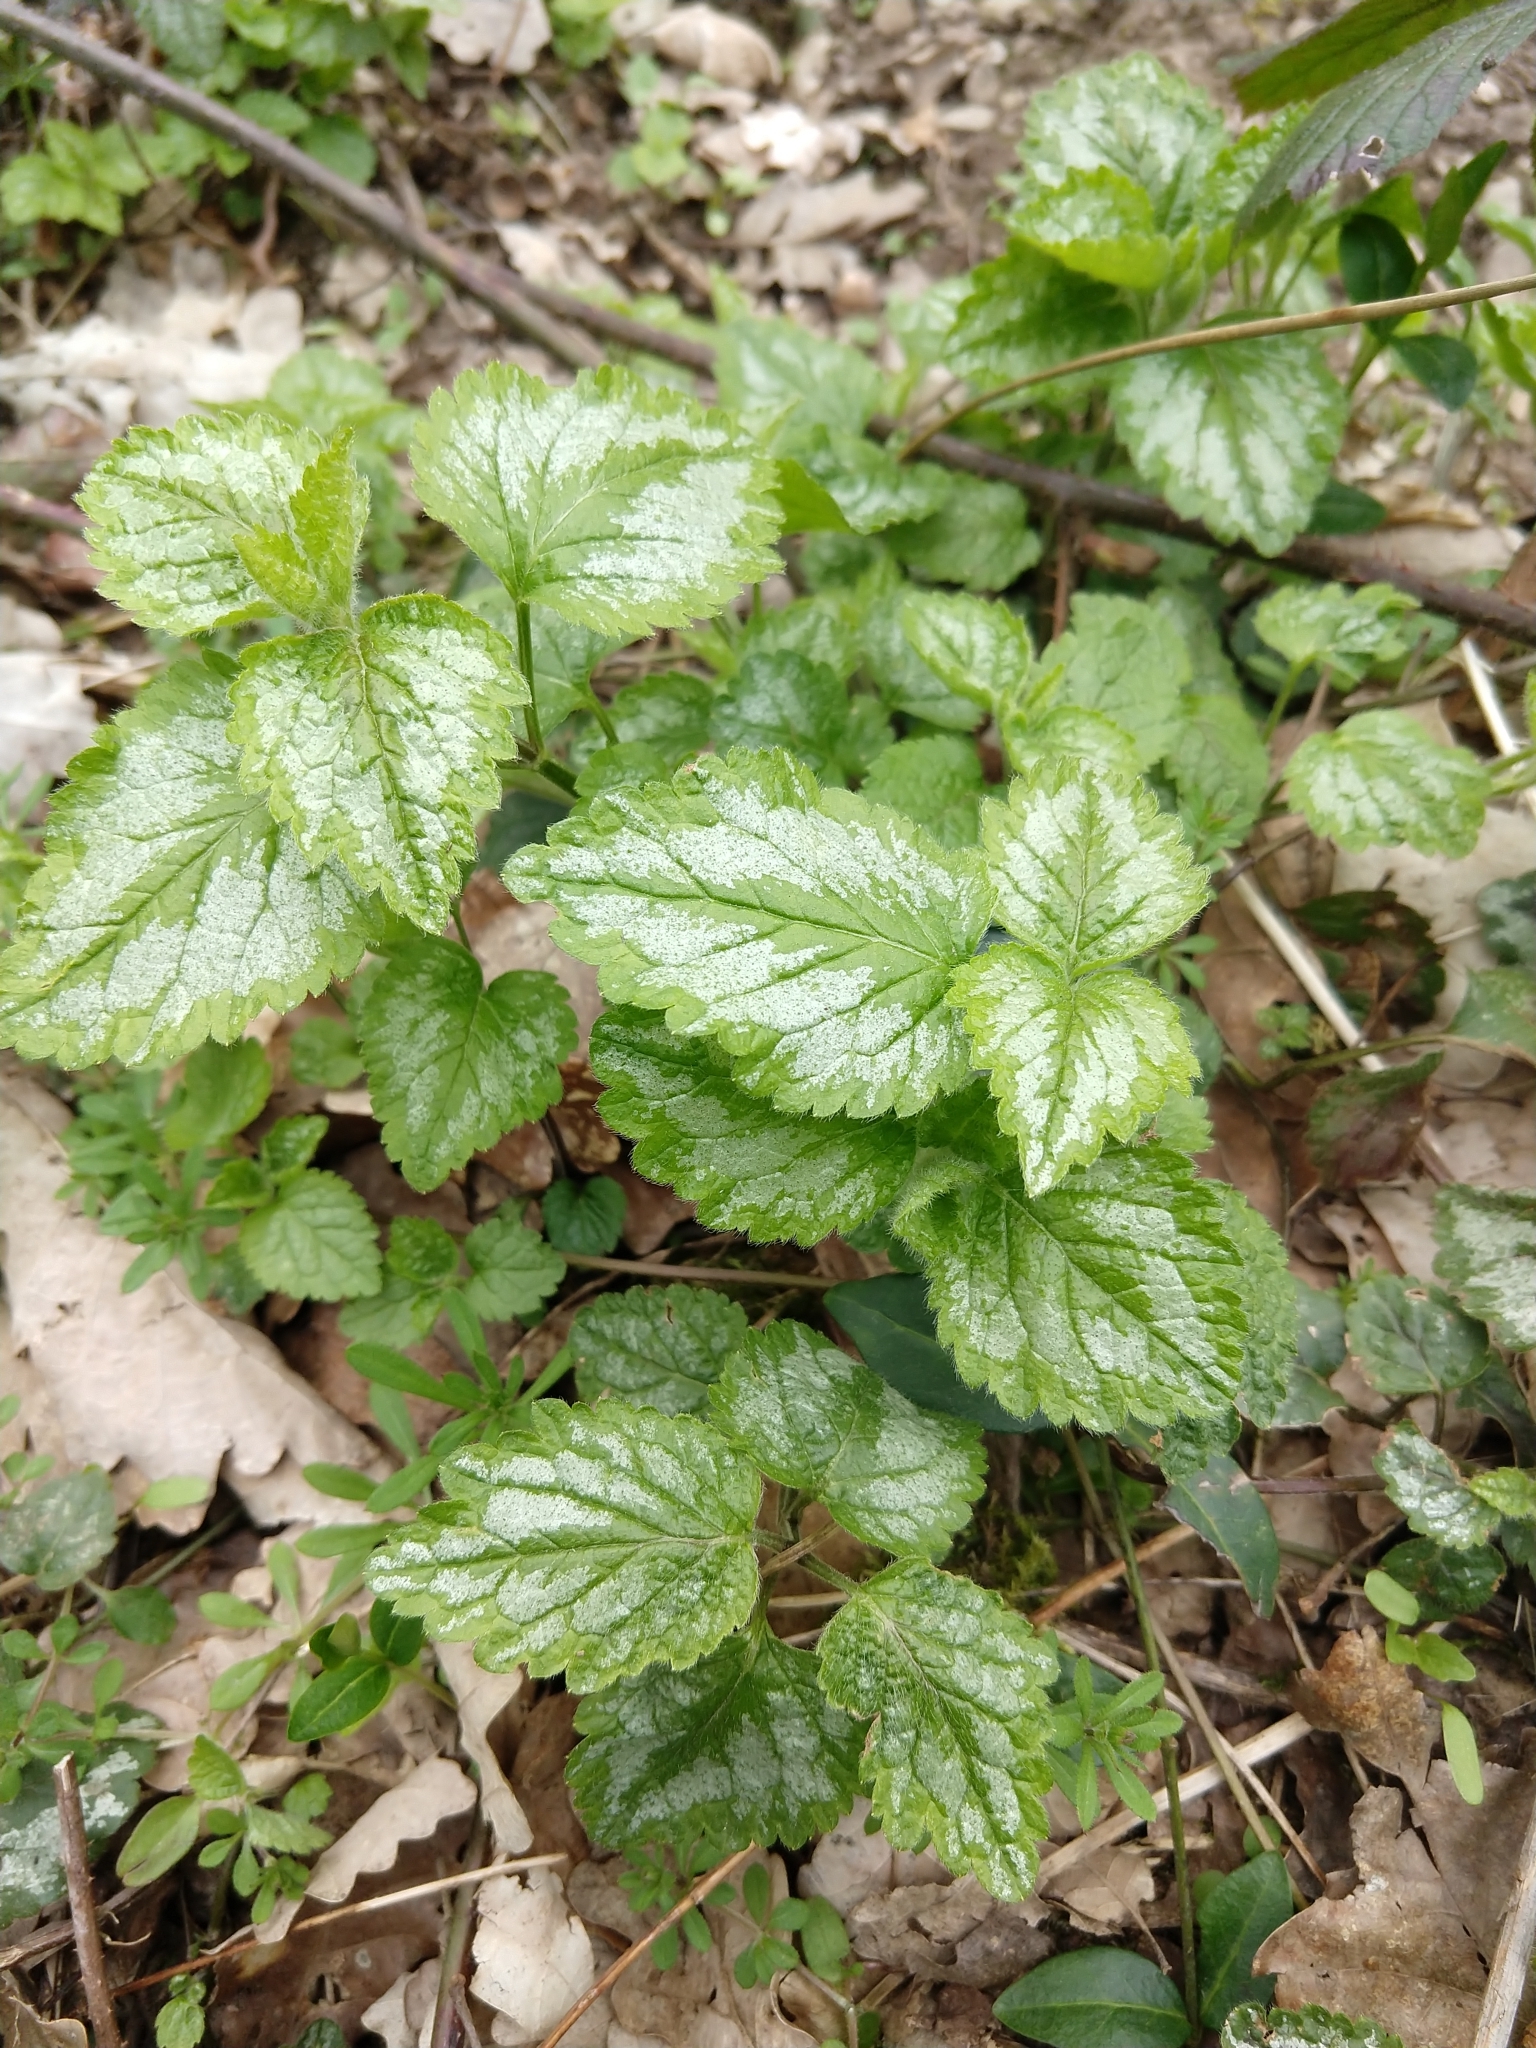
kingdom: Plantae
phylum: Tracheophyta
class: Magnoliopsida
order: Lamiales
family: Lamiaceae
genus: Lamium
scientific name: Lamium galeobdolon
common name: Yellow archangel
